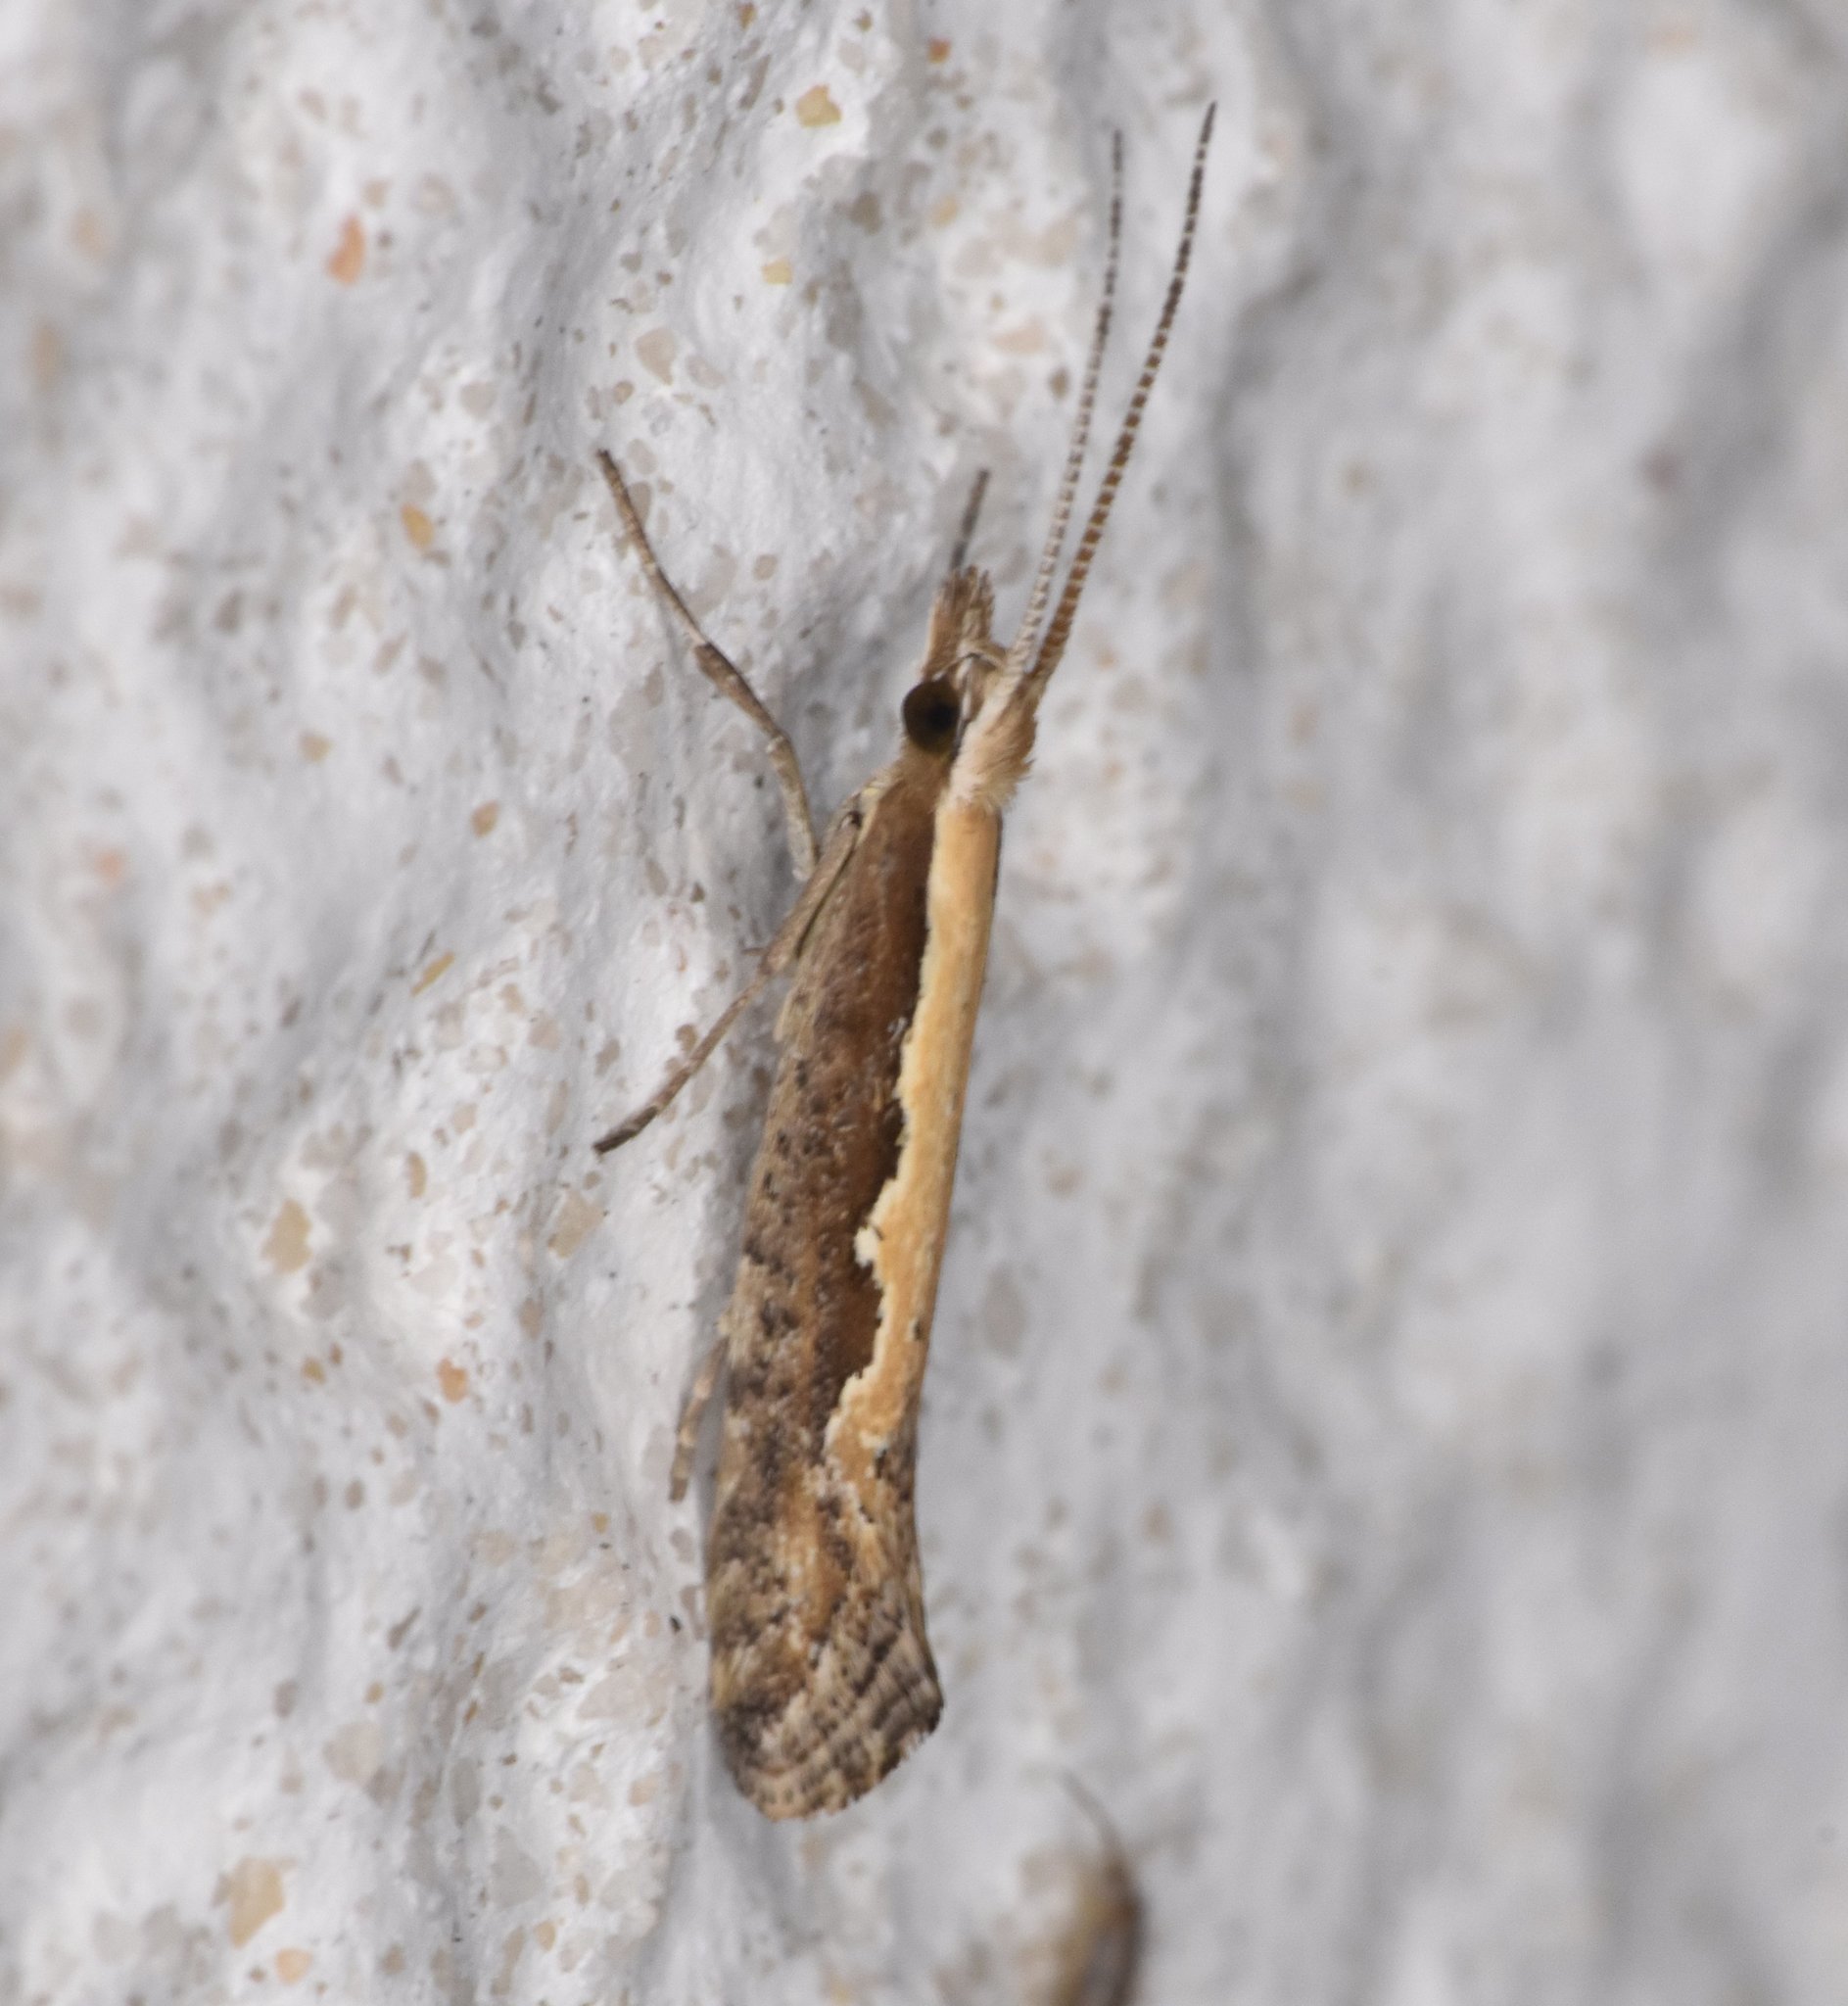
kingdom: Animalia
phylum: Arthropoda
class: Insecta
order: Lepidoptera
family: Plutellidae
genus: Plutella
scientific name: Plutella xylostella
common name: Diamond-back moth
